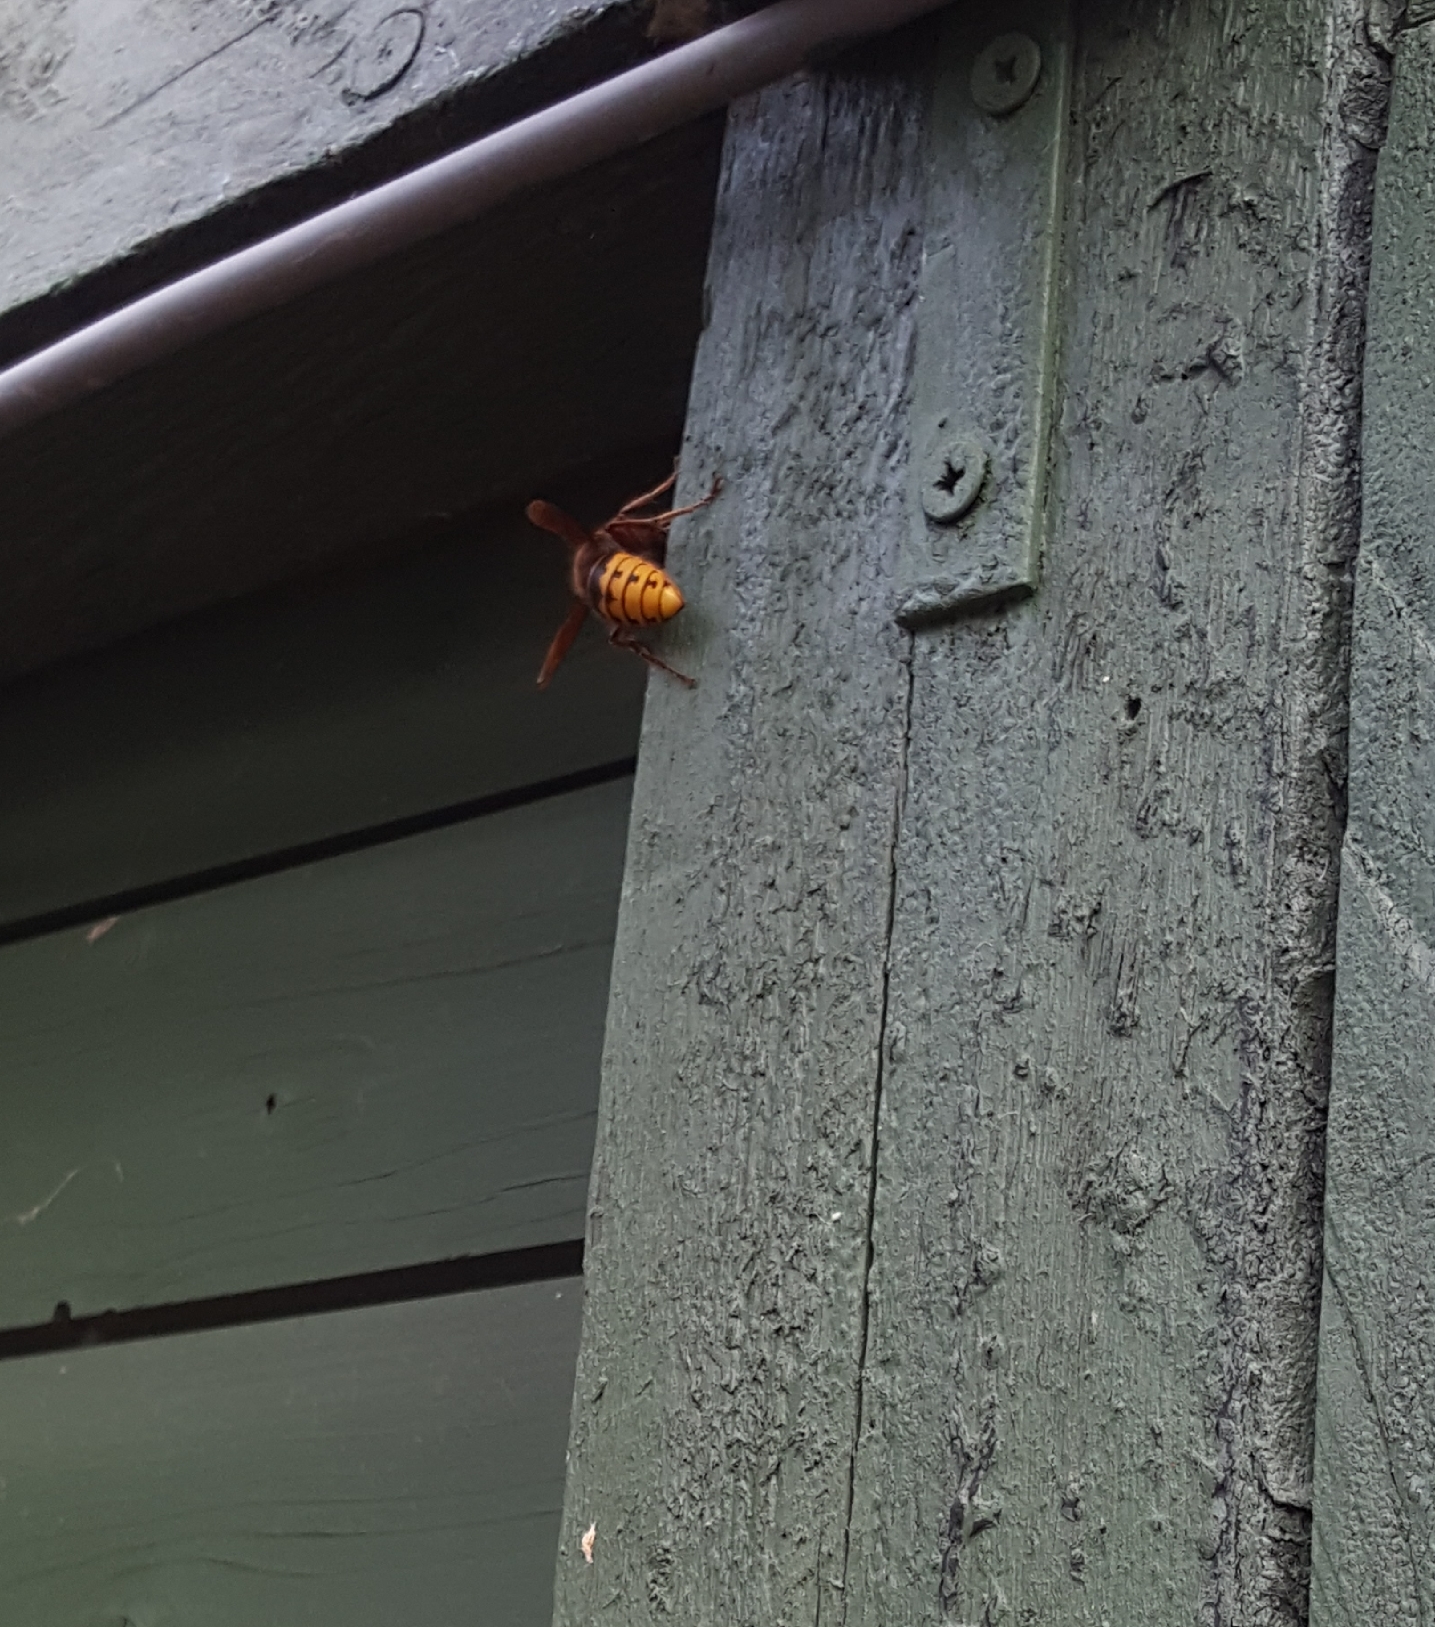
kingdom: Animalia
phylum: Arthropoda
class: Insecta
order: Hymenoptera
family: Vespidae
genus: Vespa
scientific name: Vespa crabro
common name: Hornet
